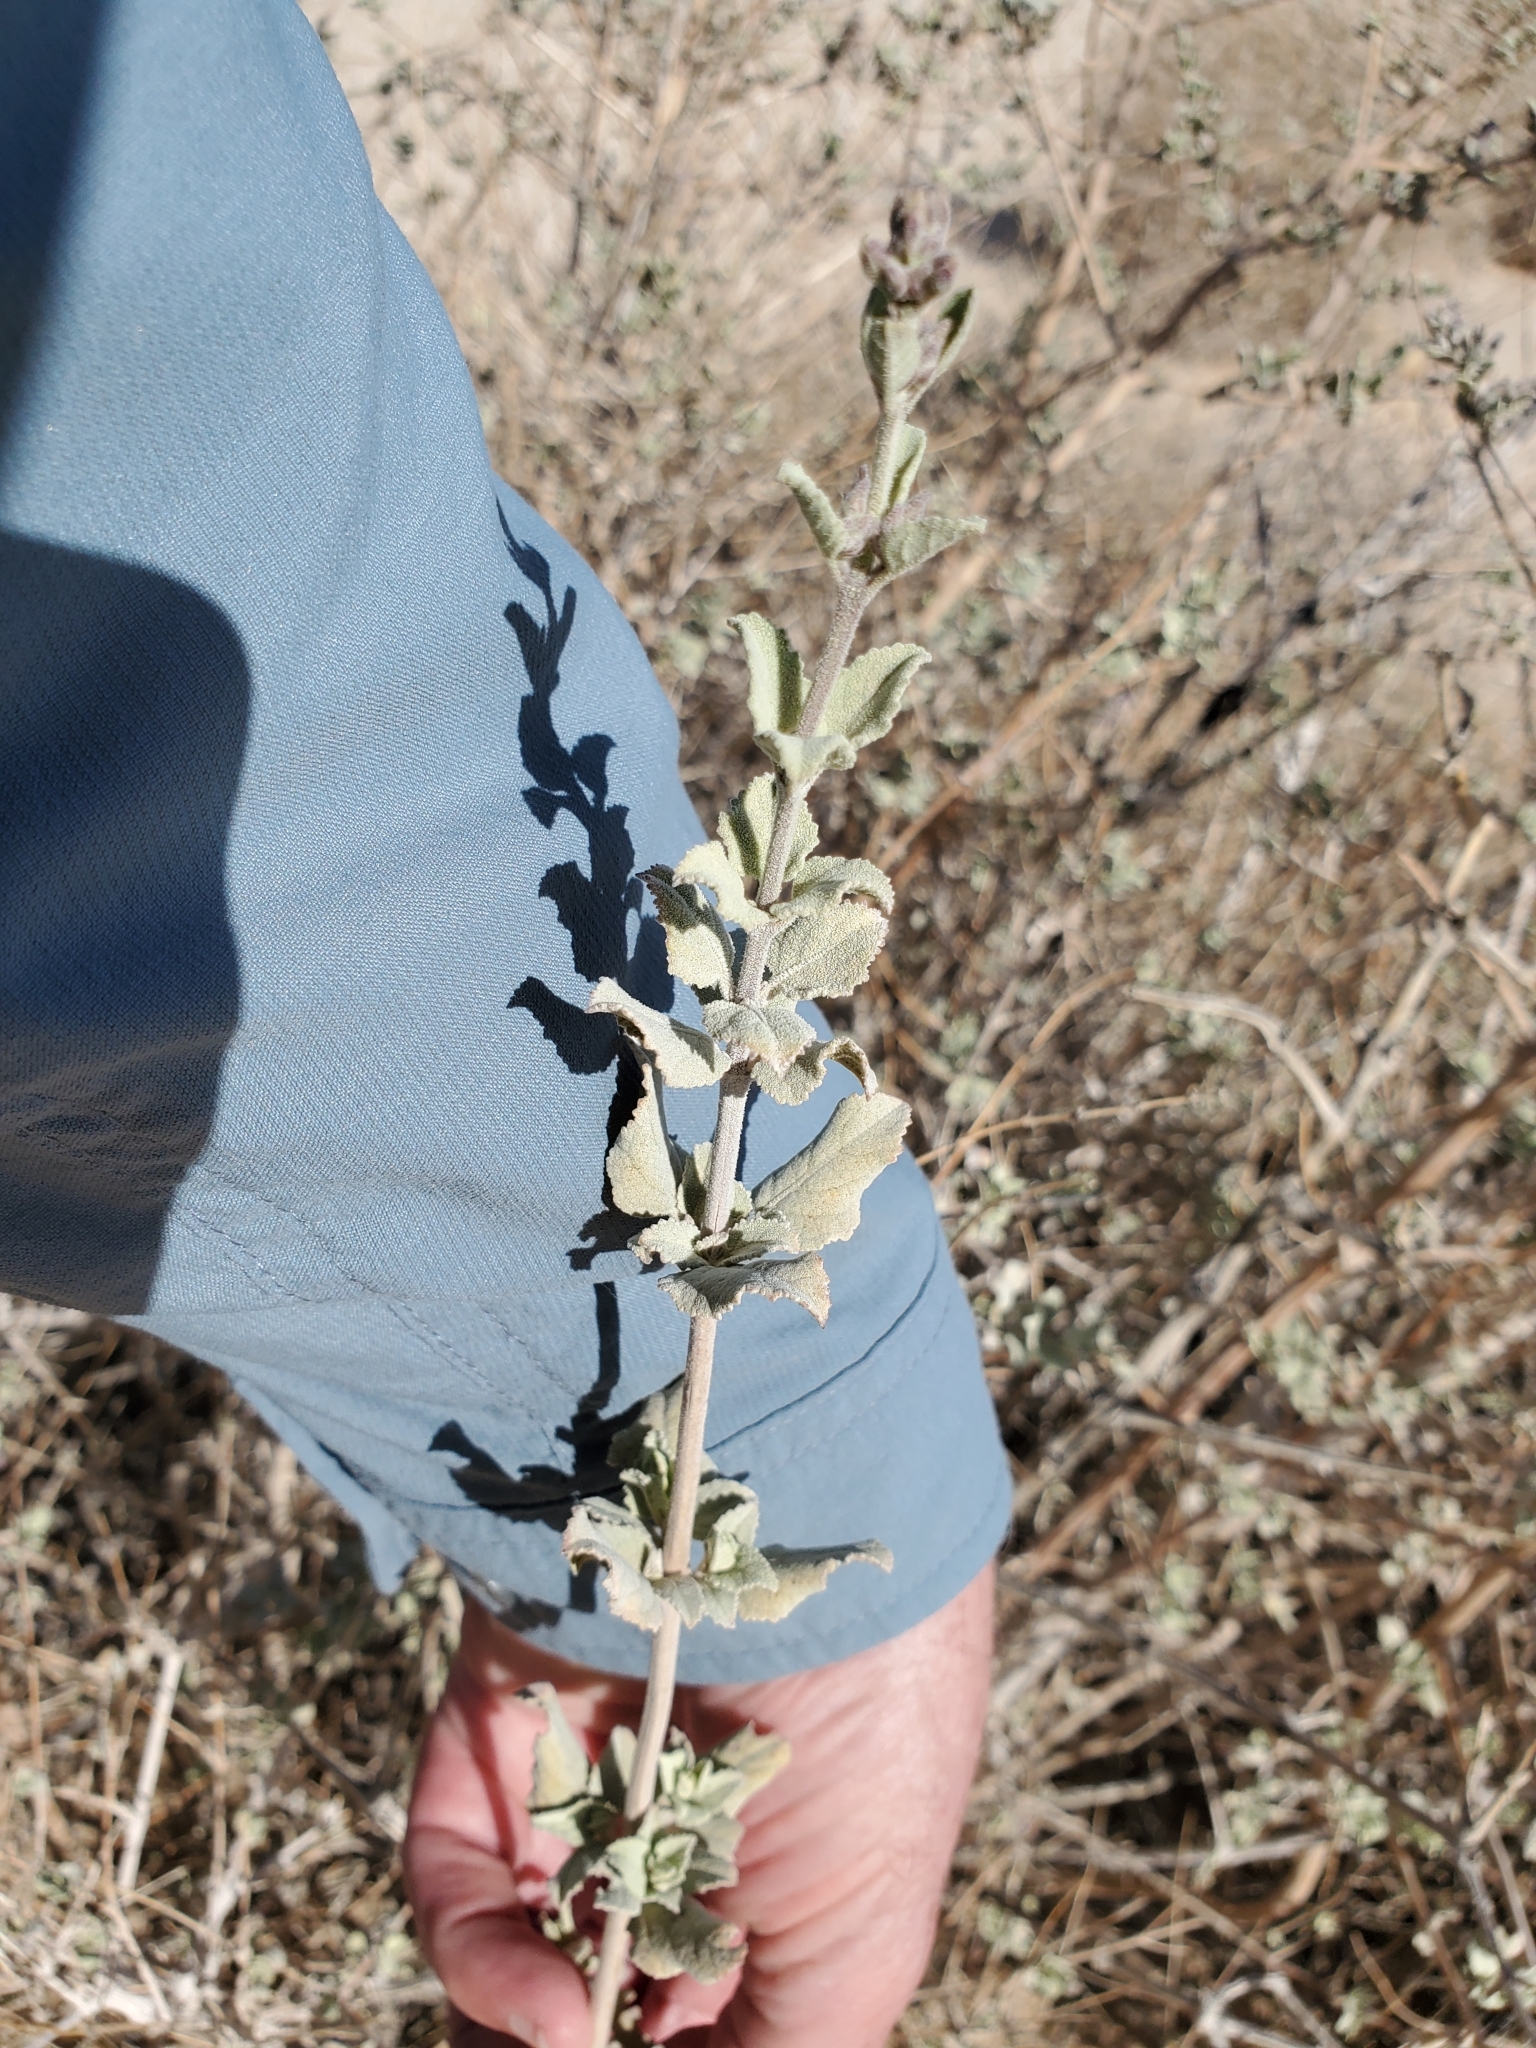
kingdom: Plantae
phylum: Tracheophyta
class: Magnoliopsida
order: Lamiales
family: Lamiaceae
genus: Condea
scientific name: Condea emoryi
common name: Chia
